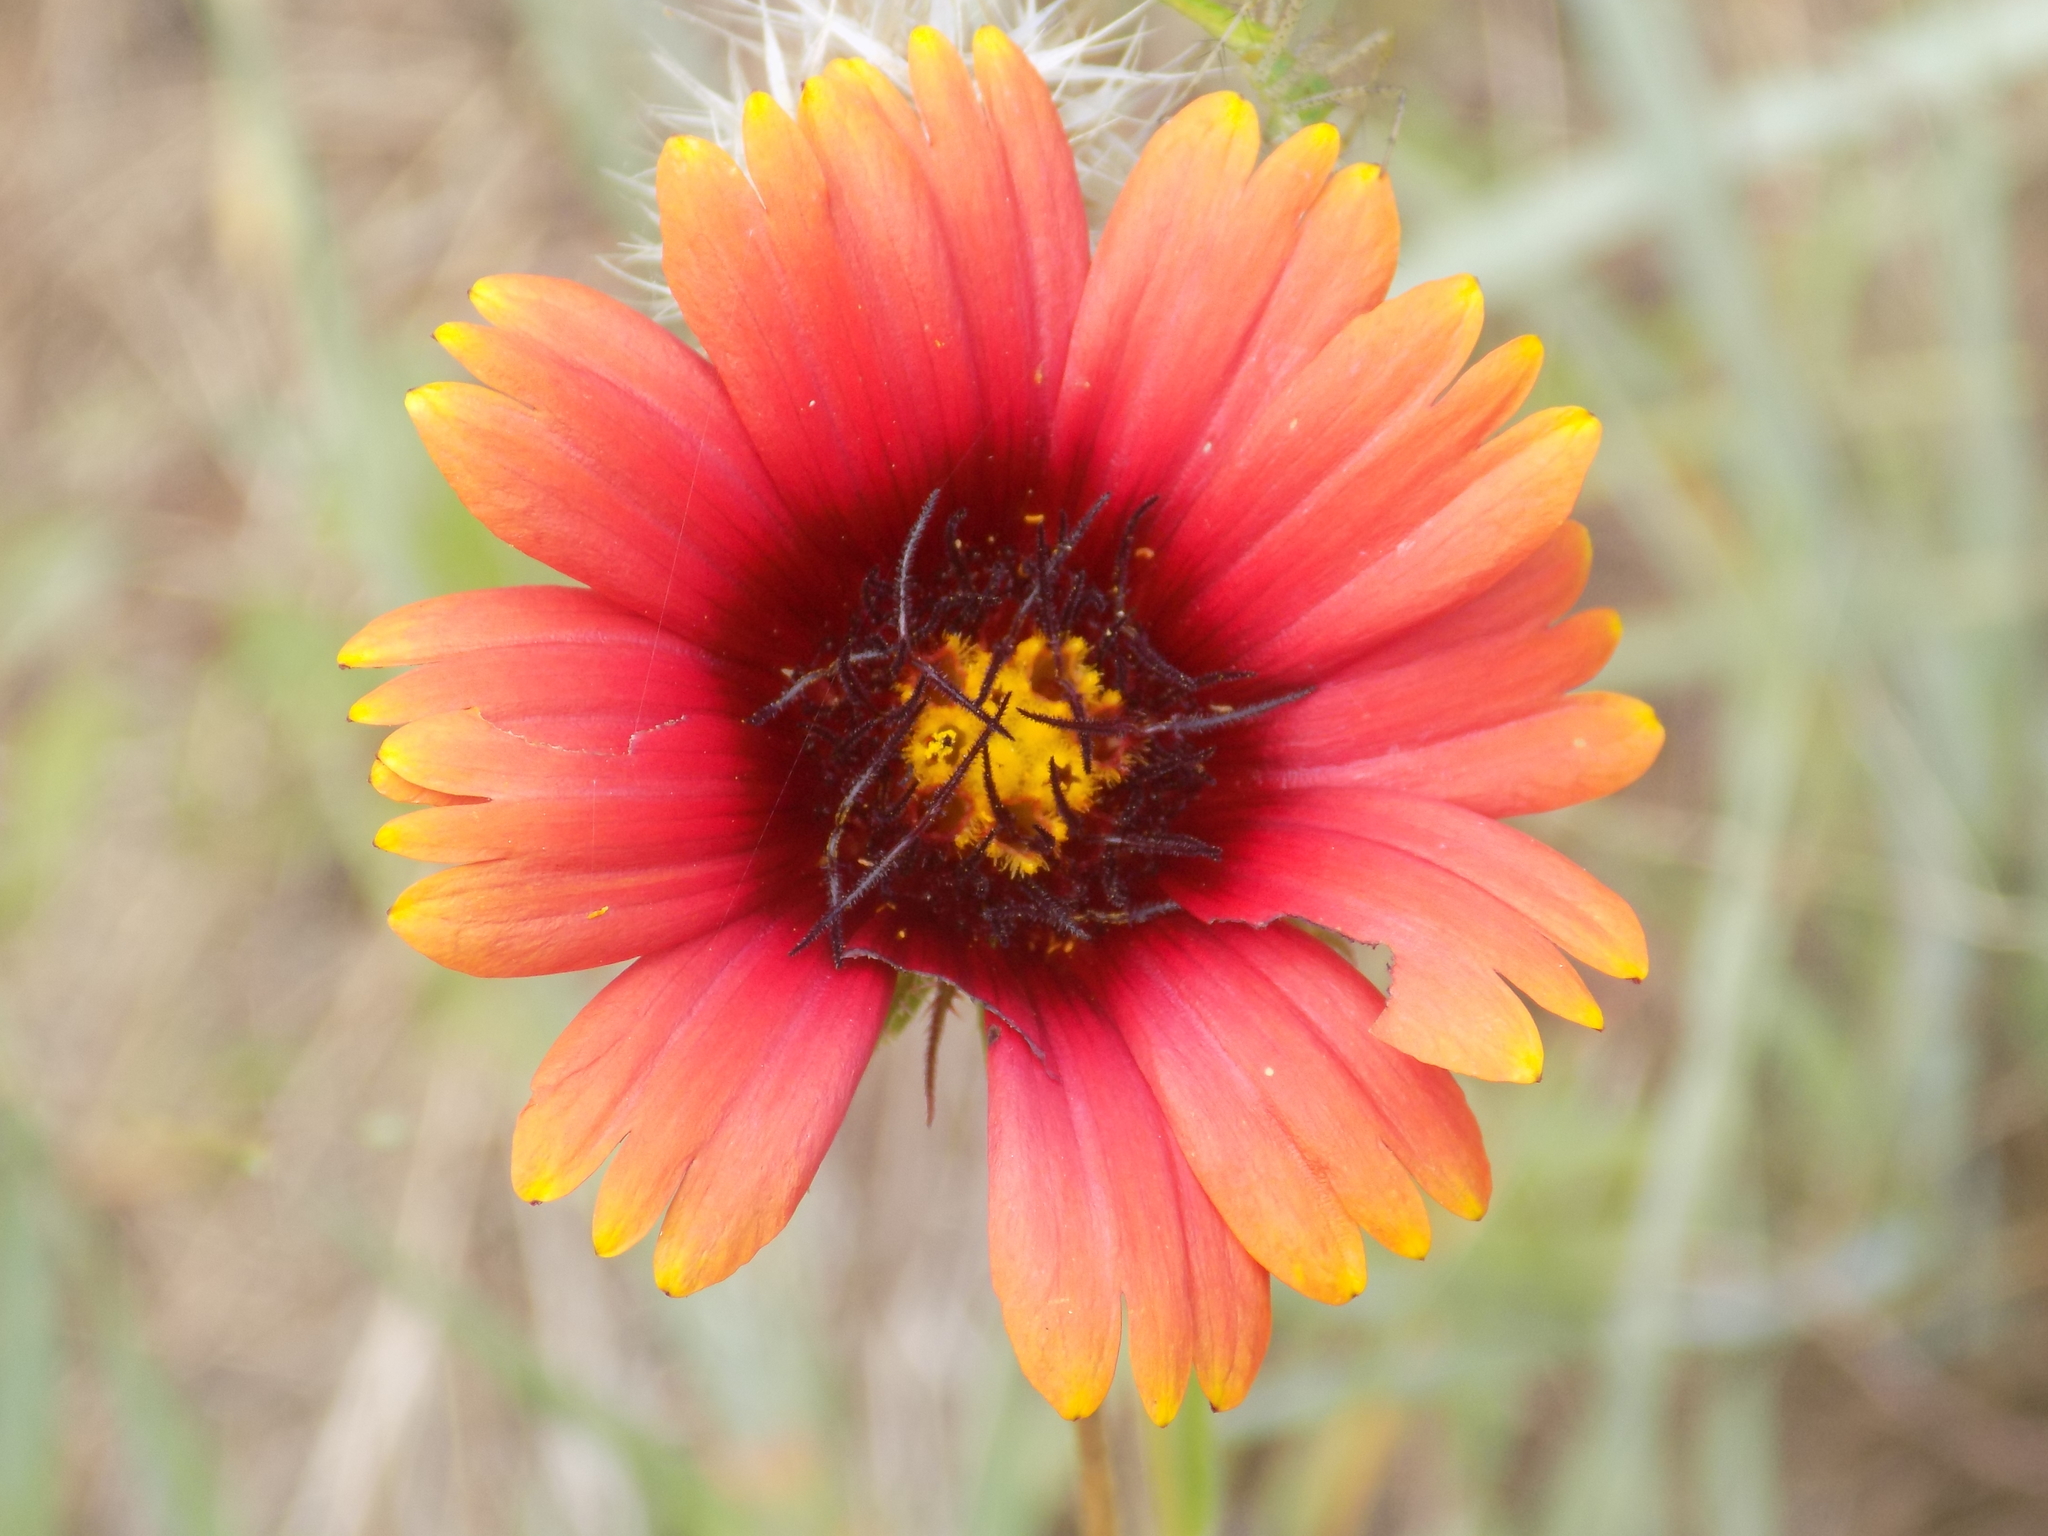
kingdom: Plantae
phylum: Tracheophyta
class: Magnoliopsida
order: Asterales
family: Asteraceae
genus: Gaillardia
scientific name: Gaillardia pulchella
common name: Firewheel
